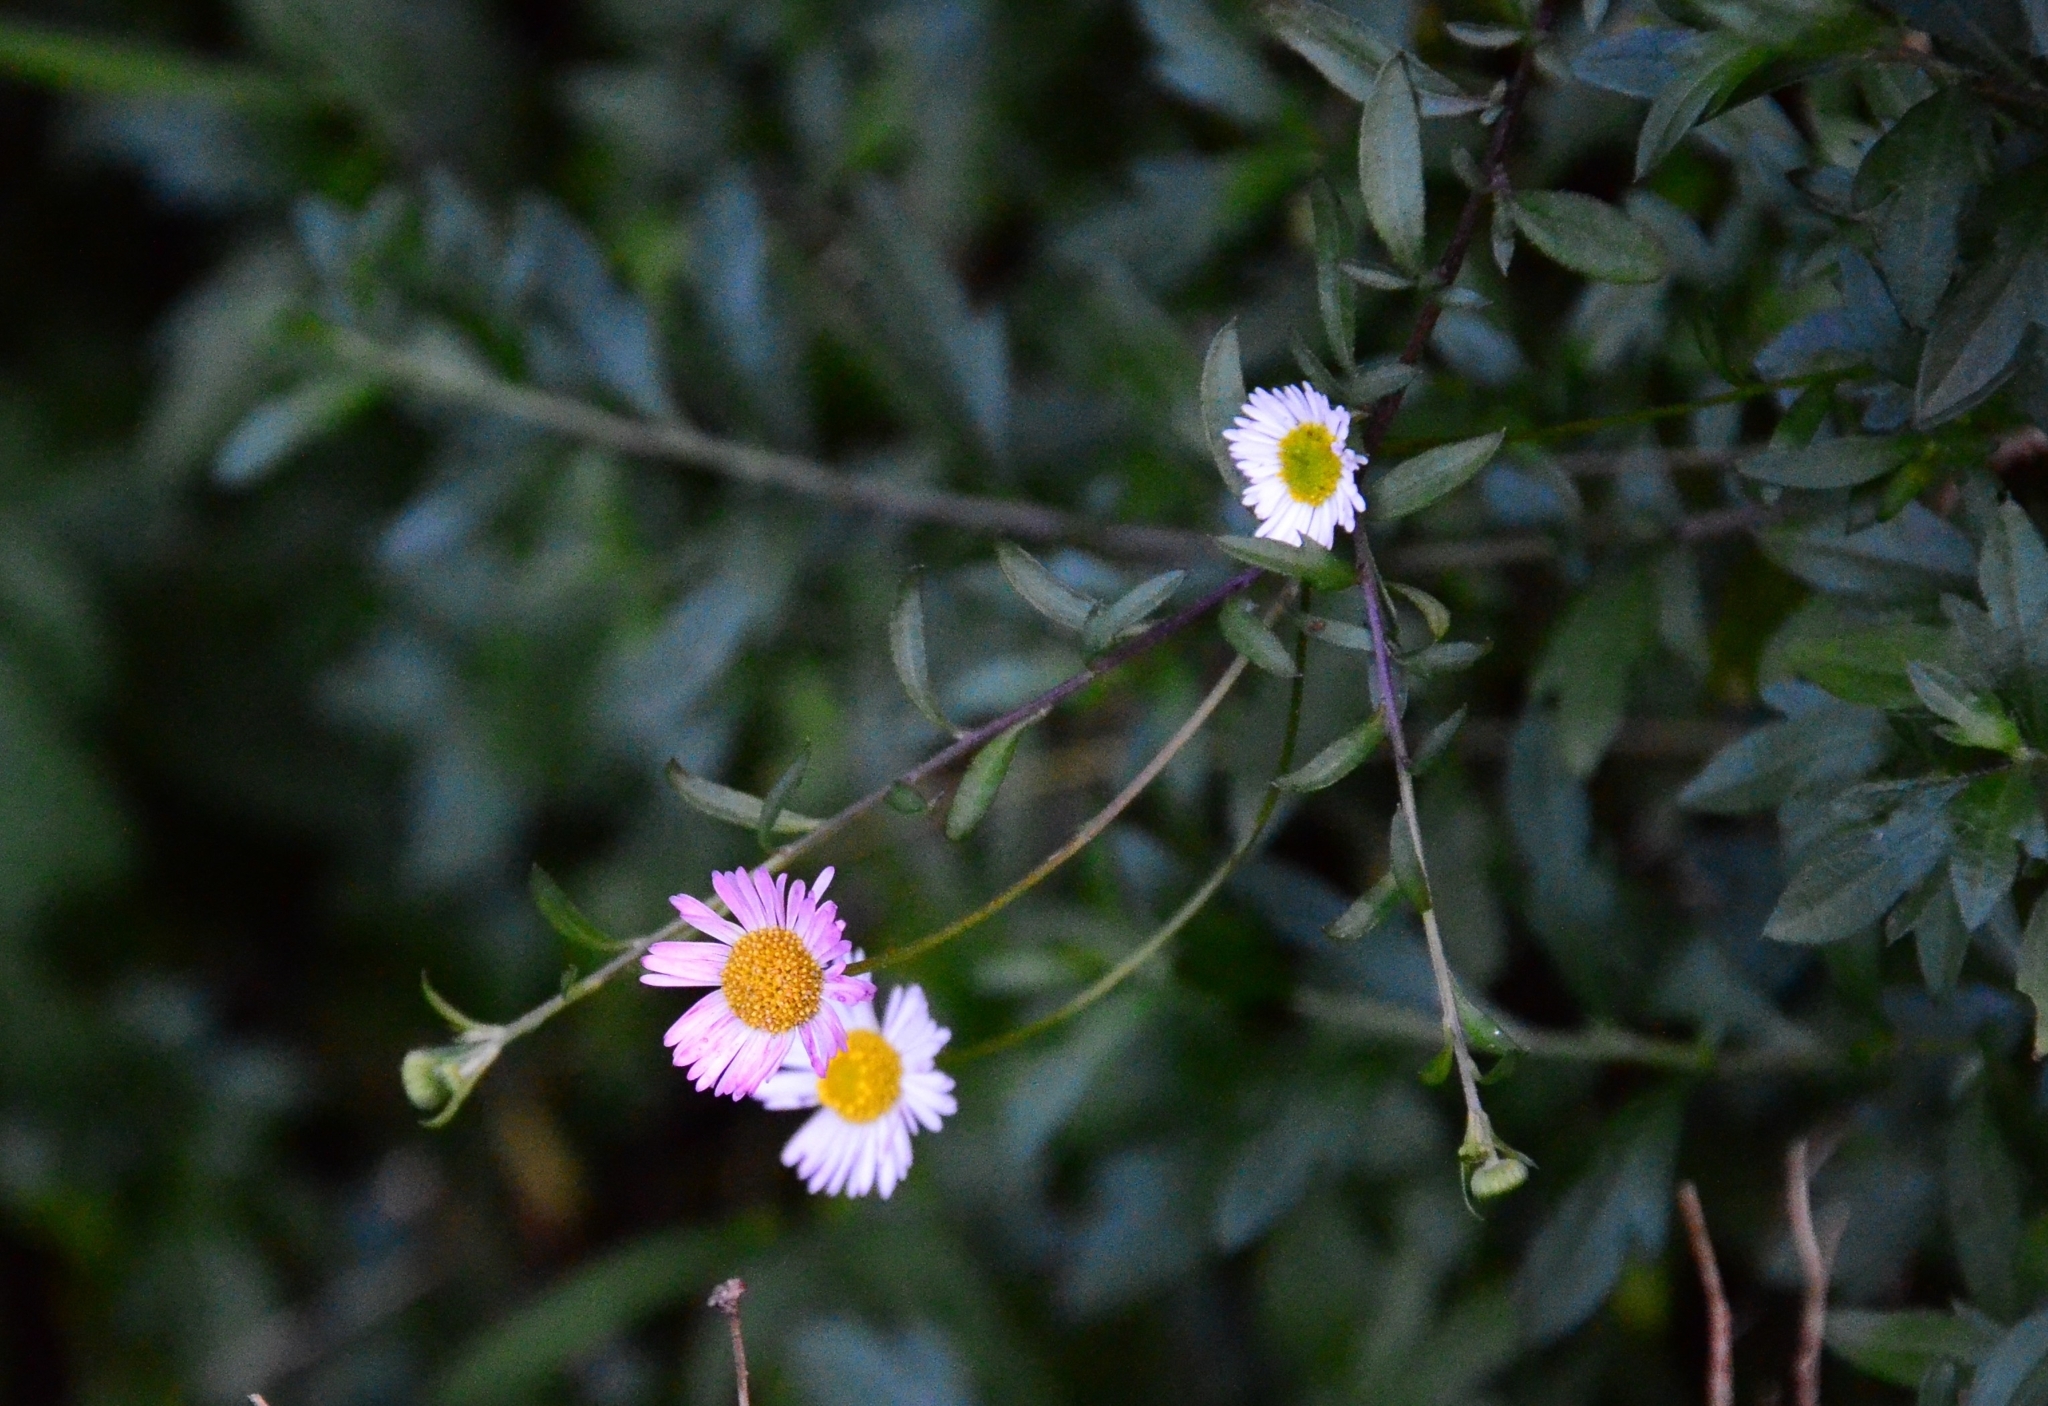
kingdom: Plantae
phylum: Tracheophyta
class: Magnoliopsida
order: Asterales
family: Asteraceae
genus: Erigeron
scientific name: Erigeron karvinskianus
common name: Mexican fleabane
